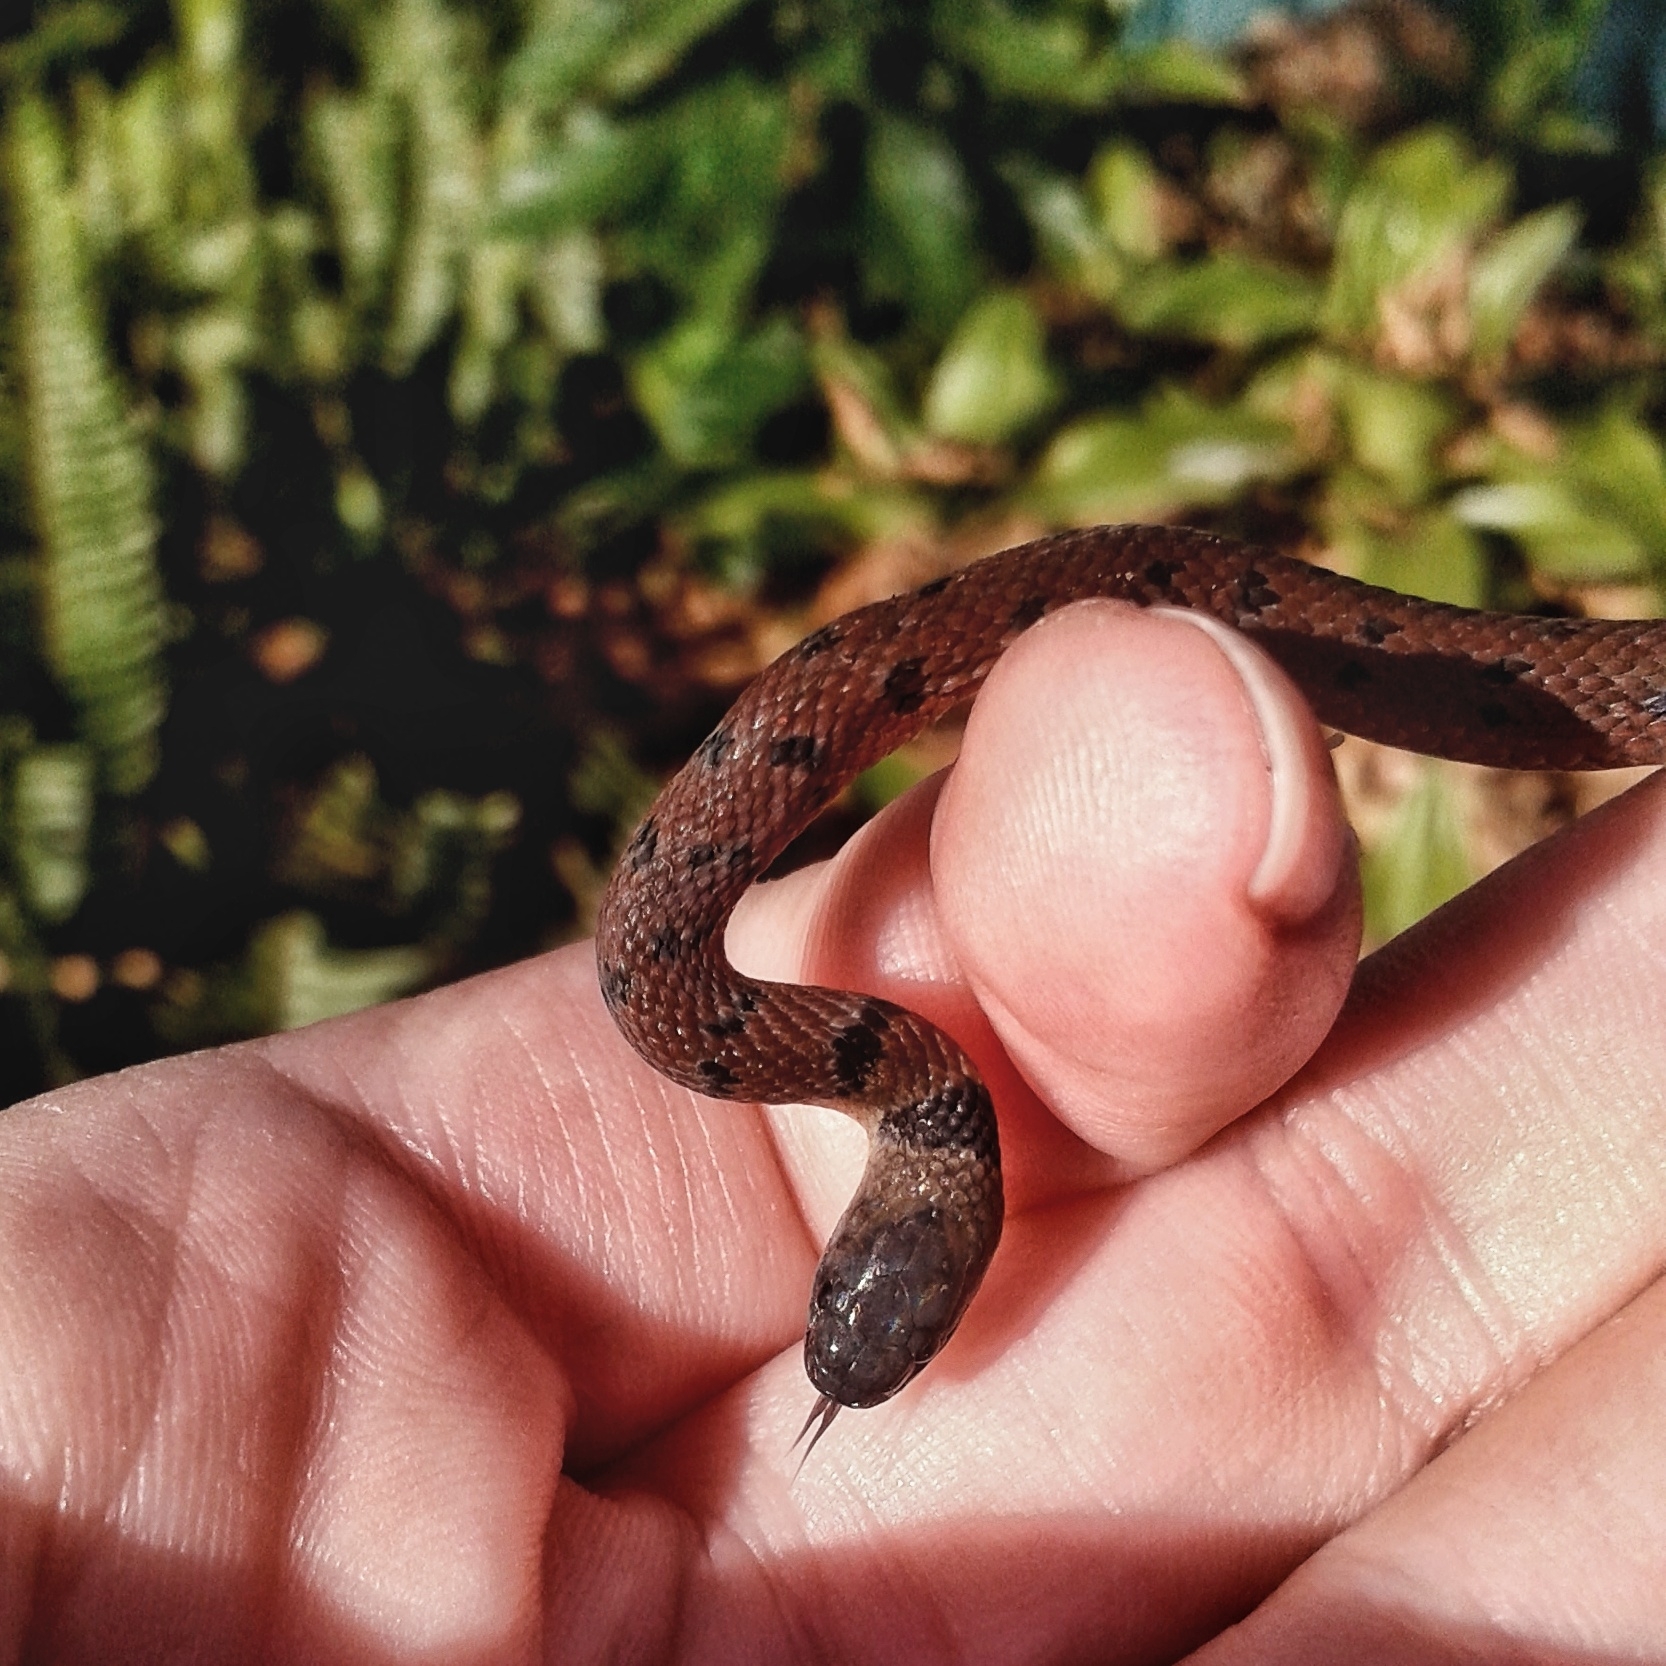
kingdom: Animalia
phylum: Chordata
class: Squamata
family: Colubridae
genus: Ninia
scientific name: Ninia maculata
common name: Spotted coffee snake
